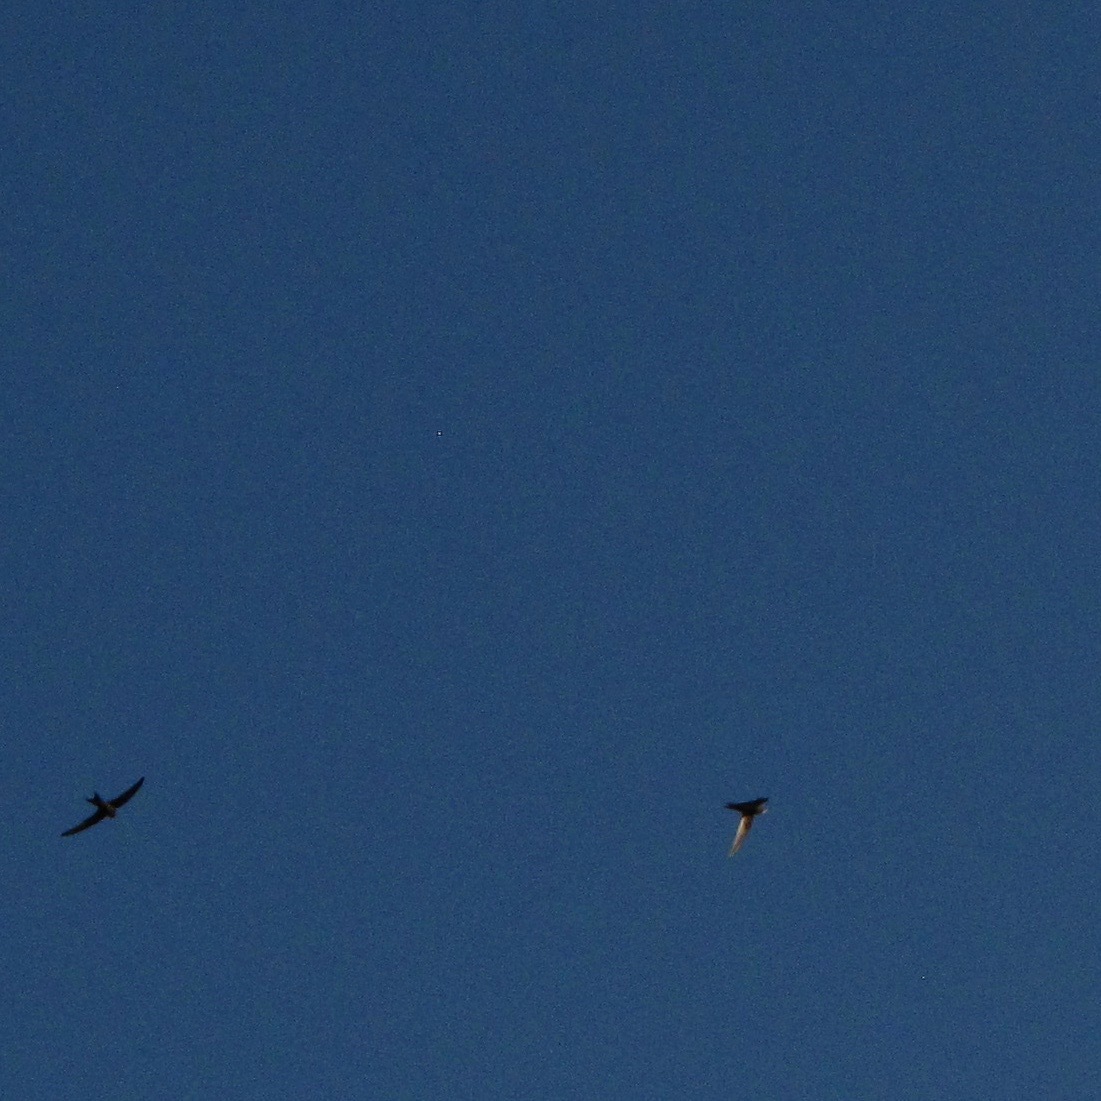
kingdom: Animalia
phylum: Chordata
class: Aves
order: Apodiformes
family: Apodidae
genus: Apus
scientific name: Apus apus
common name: Common swift
